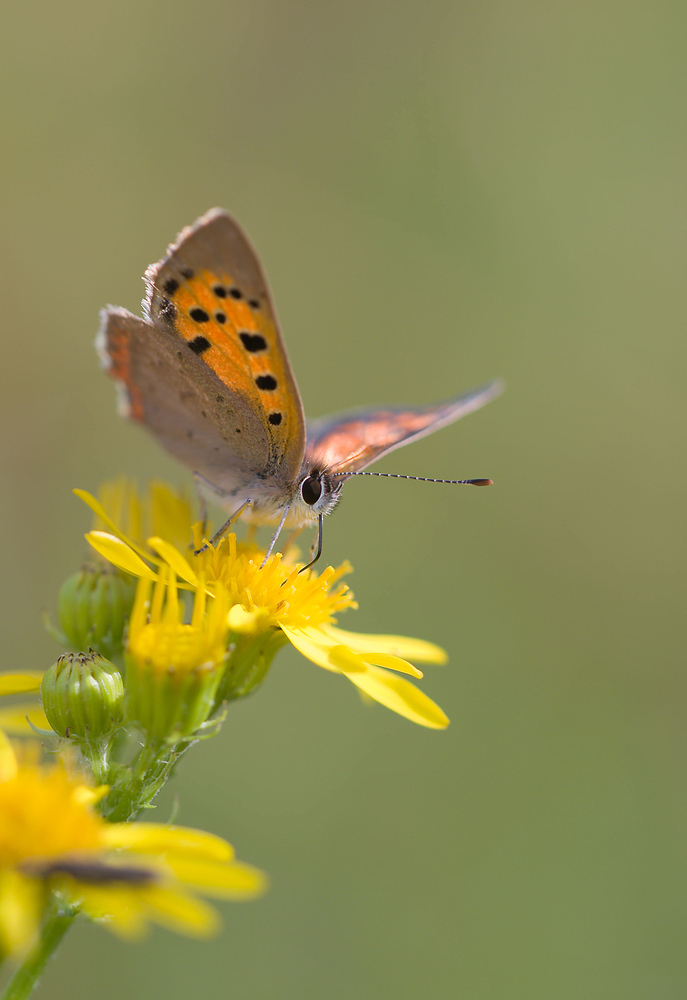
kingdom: Animalia
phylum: Arthropoda
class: Insecta
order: Lepidoptera
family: Lycaenidae
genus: Lycaena
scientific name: Lycaena phlaeas
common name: Small copper
